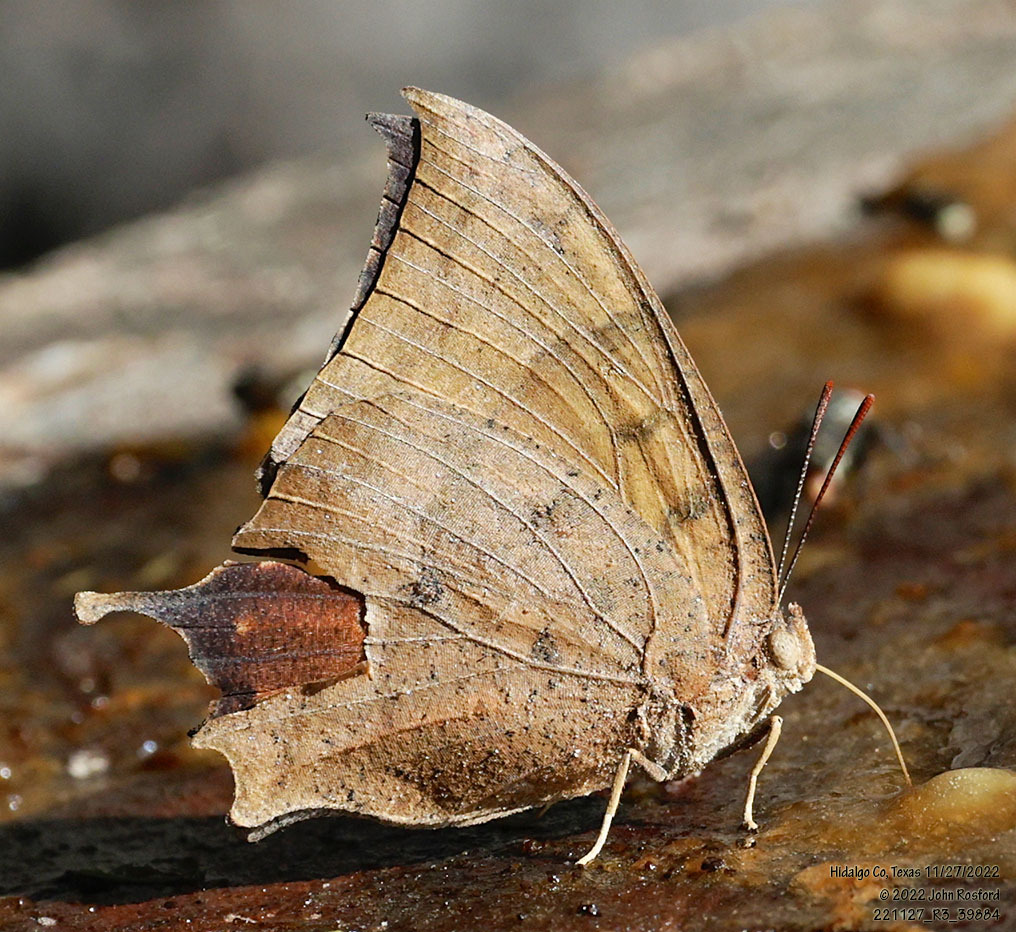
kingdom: Animalia
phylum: Arthropoda
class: Insecta
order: Lepidoptera
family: Nymphalidae
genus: Anaea
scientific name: Anaea aidea
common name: Tropical leafwing
